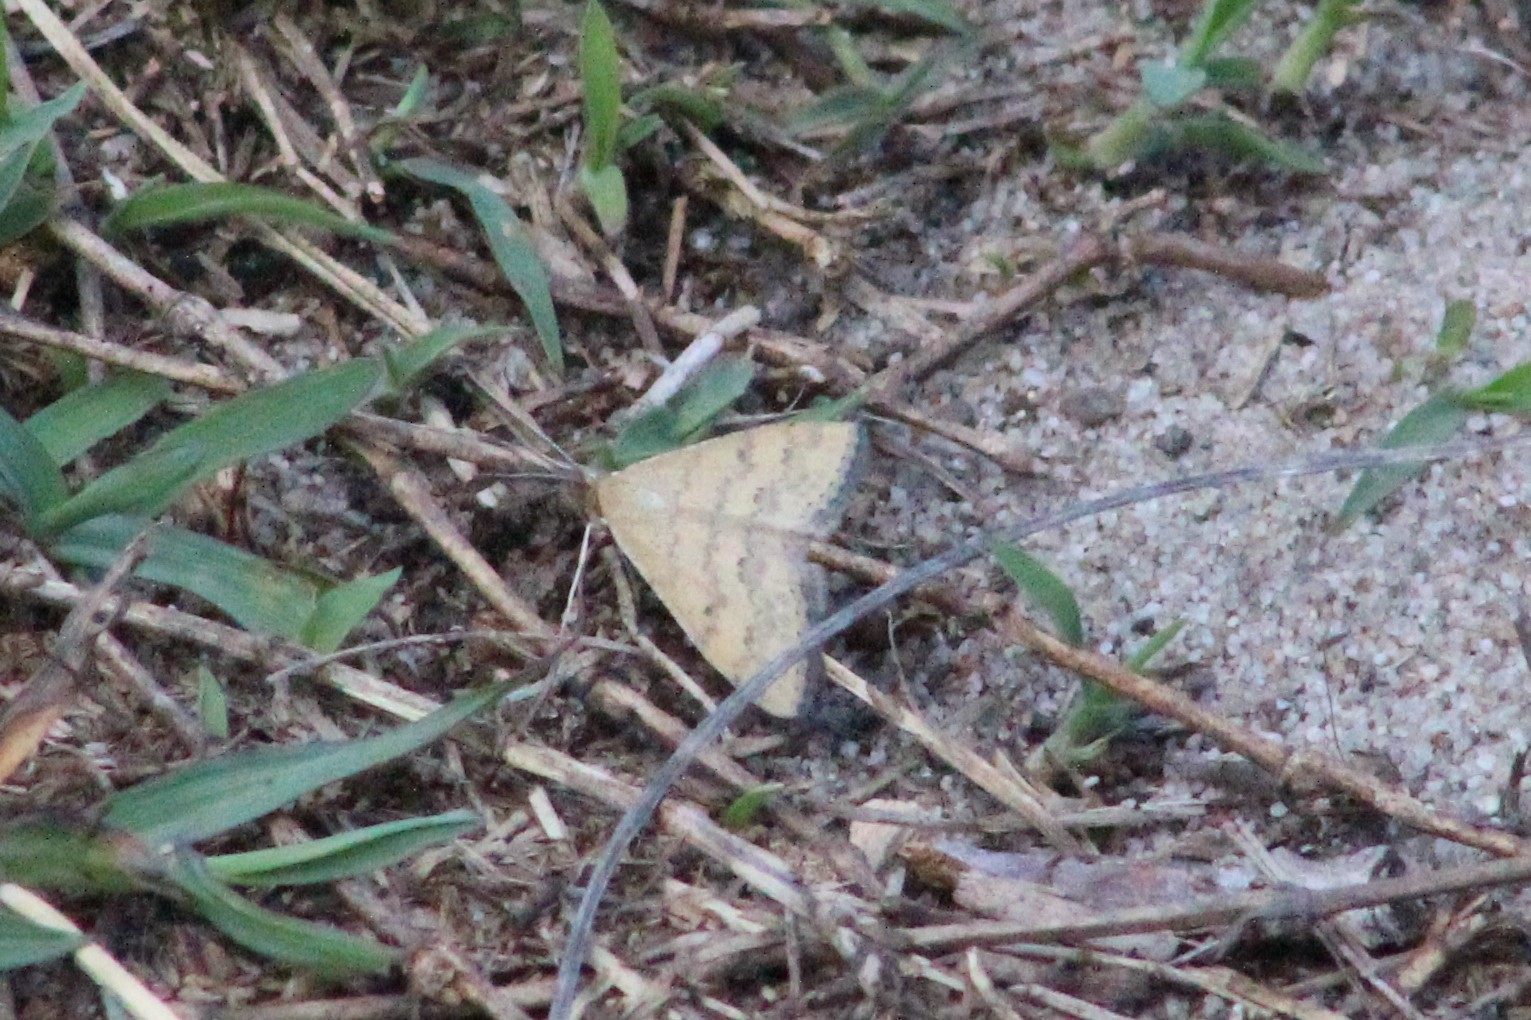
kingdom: Animalia
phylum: Arthropoda
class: Insecta
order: Lepidoptera
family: Geometridae
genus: Scopula
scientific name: Scopula rubraria
